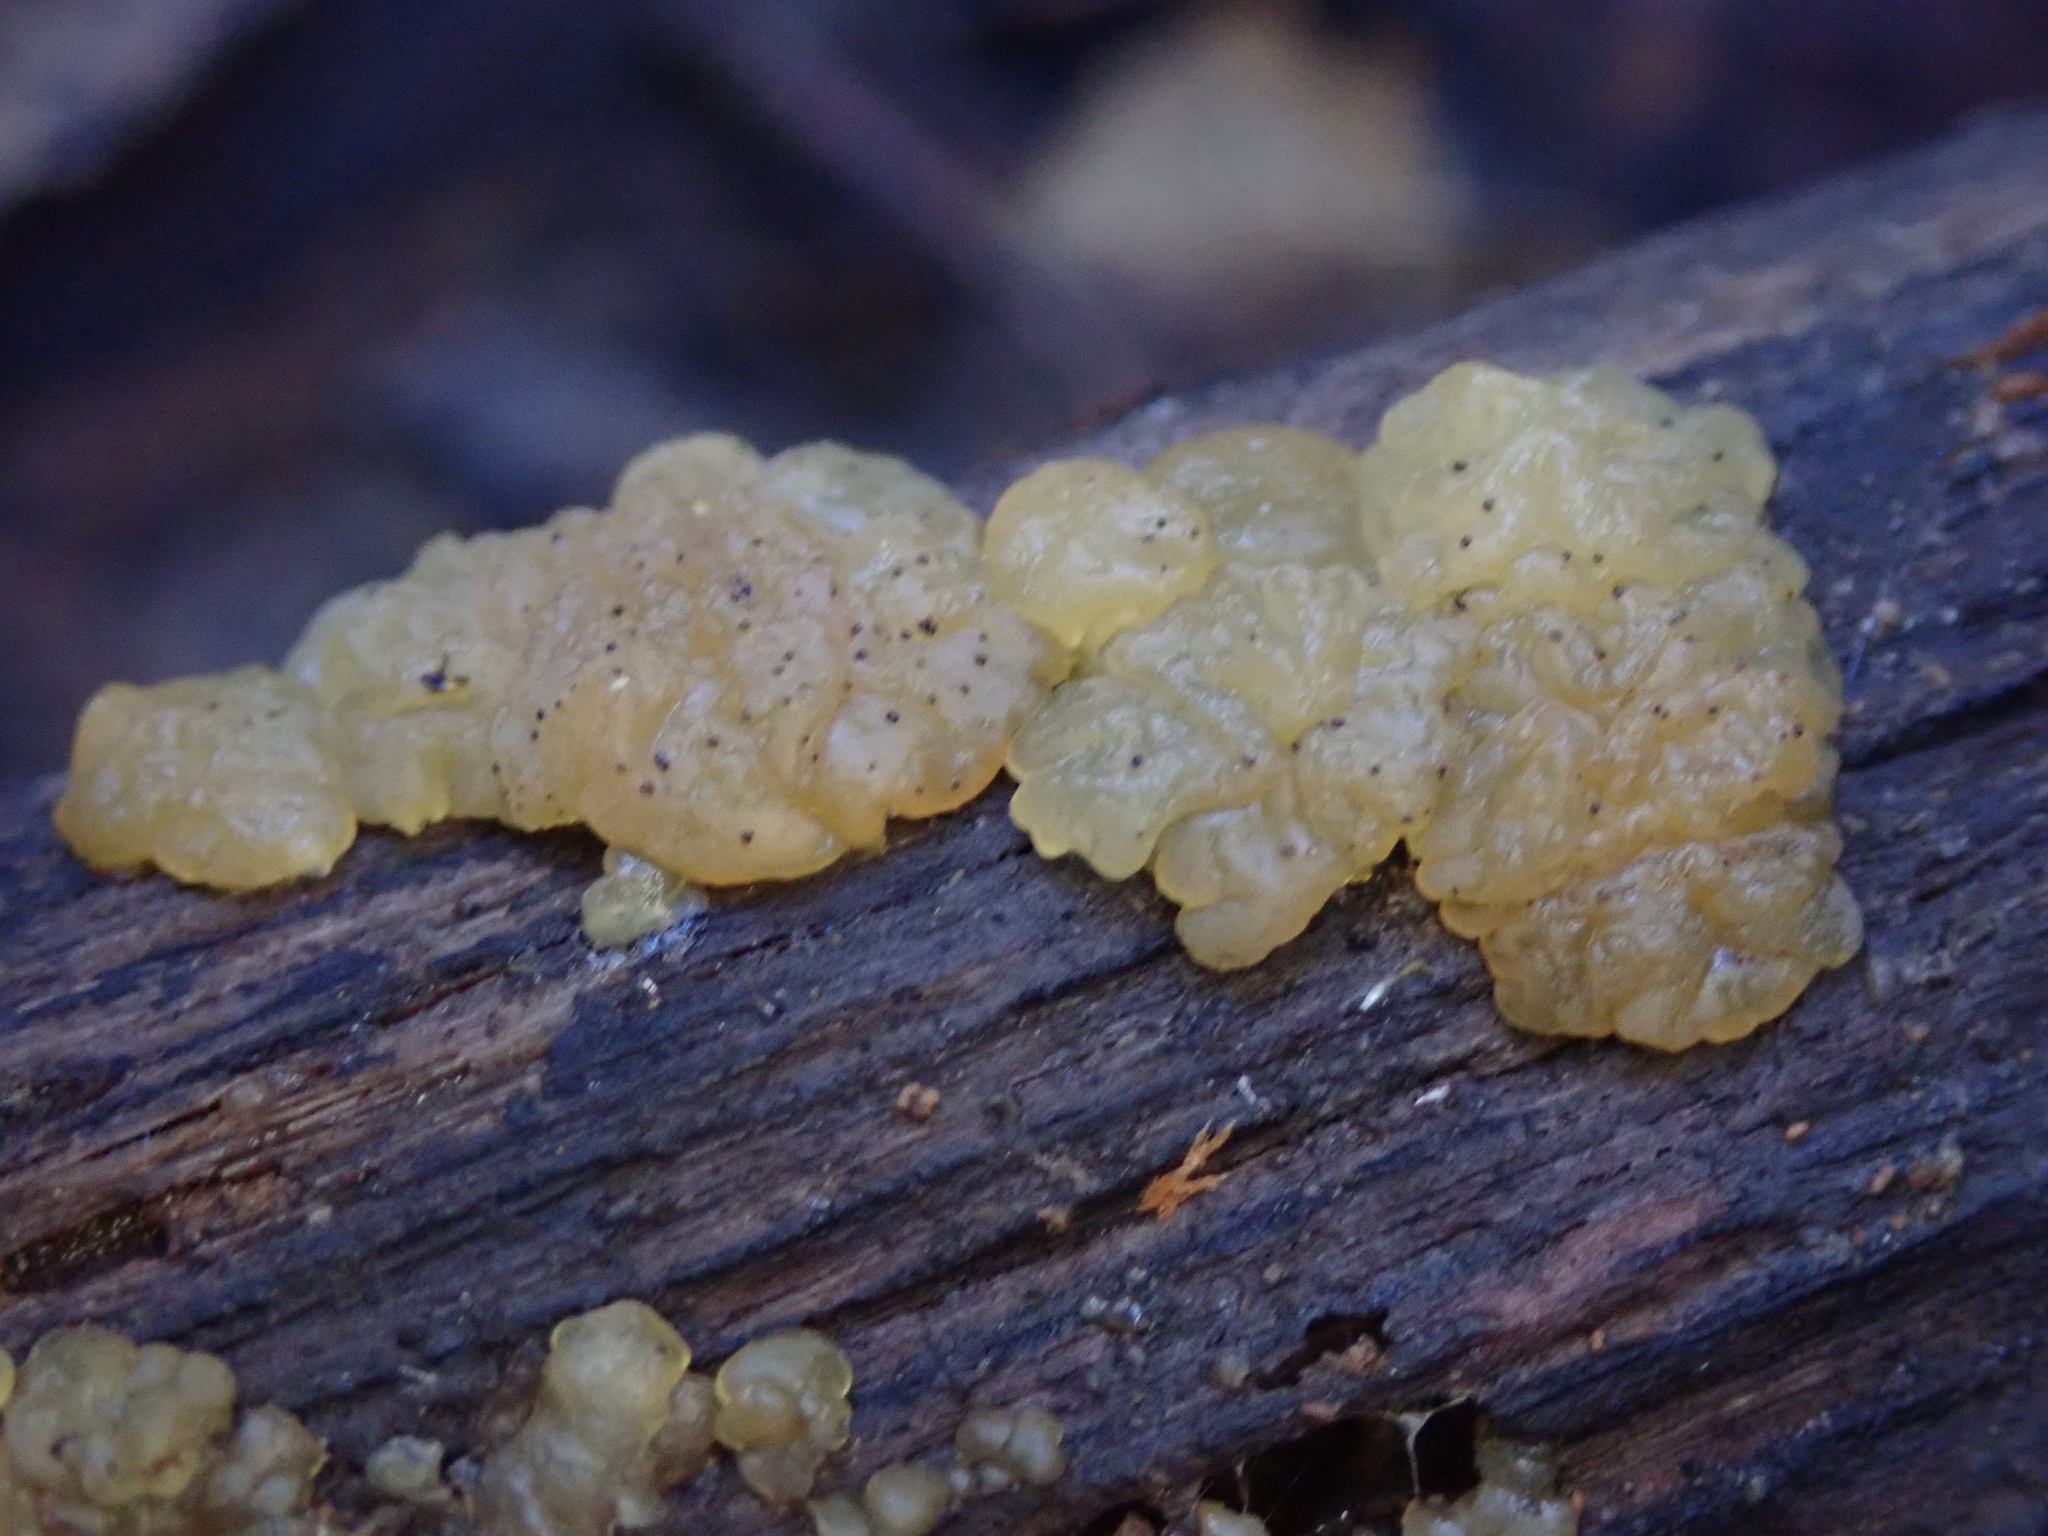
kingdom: Fungi
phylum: Basidiomycota
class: Agaricomycetes
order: Auriculariales
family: Hyaloriaceae
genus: Myxarium
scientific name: Myxarium nucleatum
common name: Crystal brain fungus
